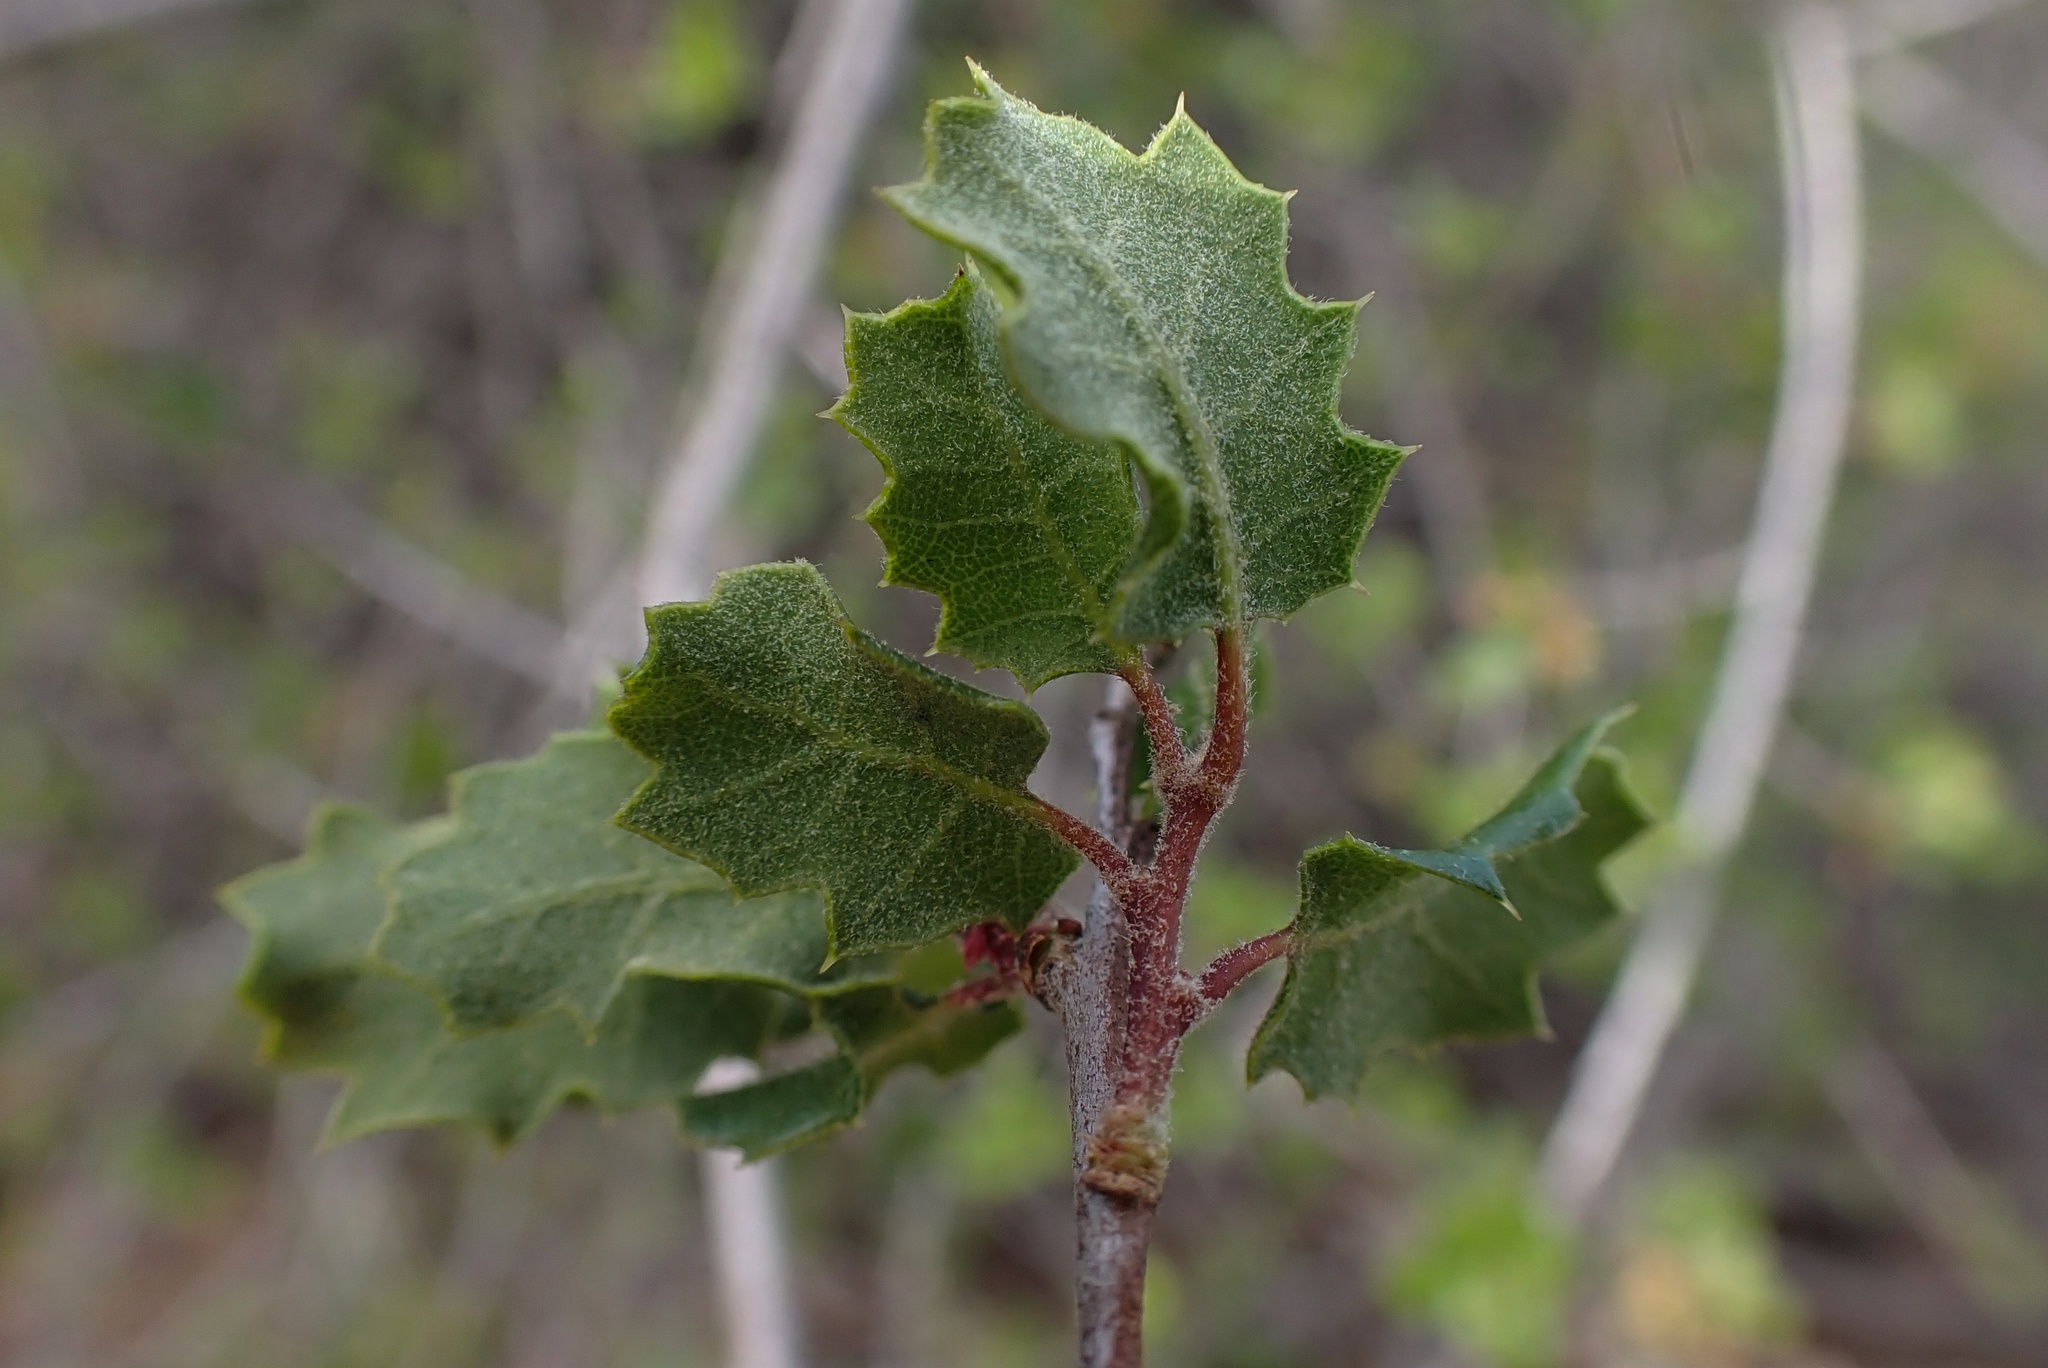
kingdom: Plantae
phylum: Tracheophyta
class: Magnoliopsida
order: Fagales
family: Fagaceae
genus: Quercus
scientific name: Quercus dumosa
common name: Coastal sage scrub oak
